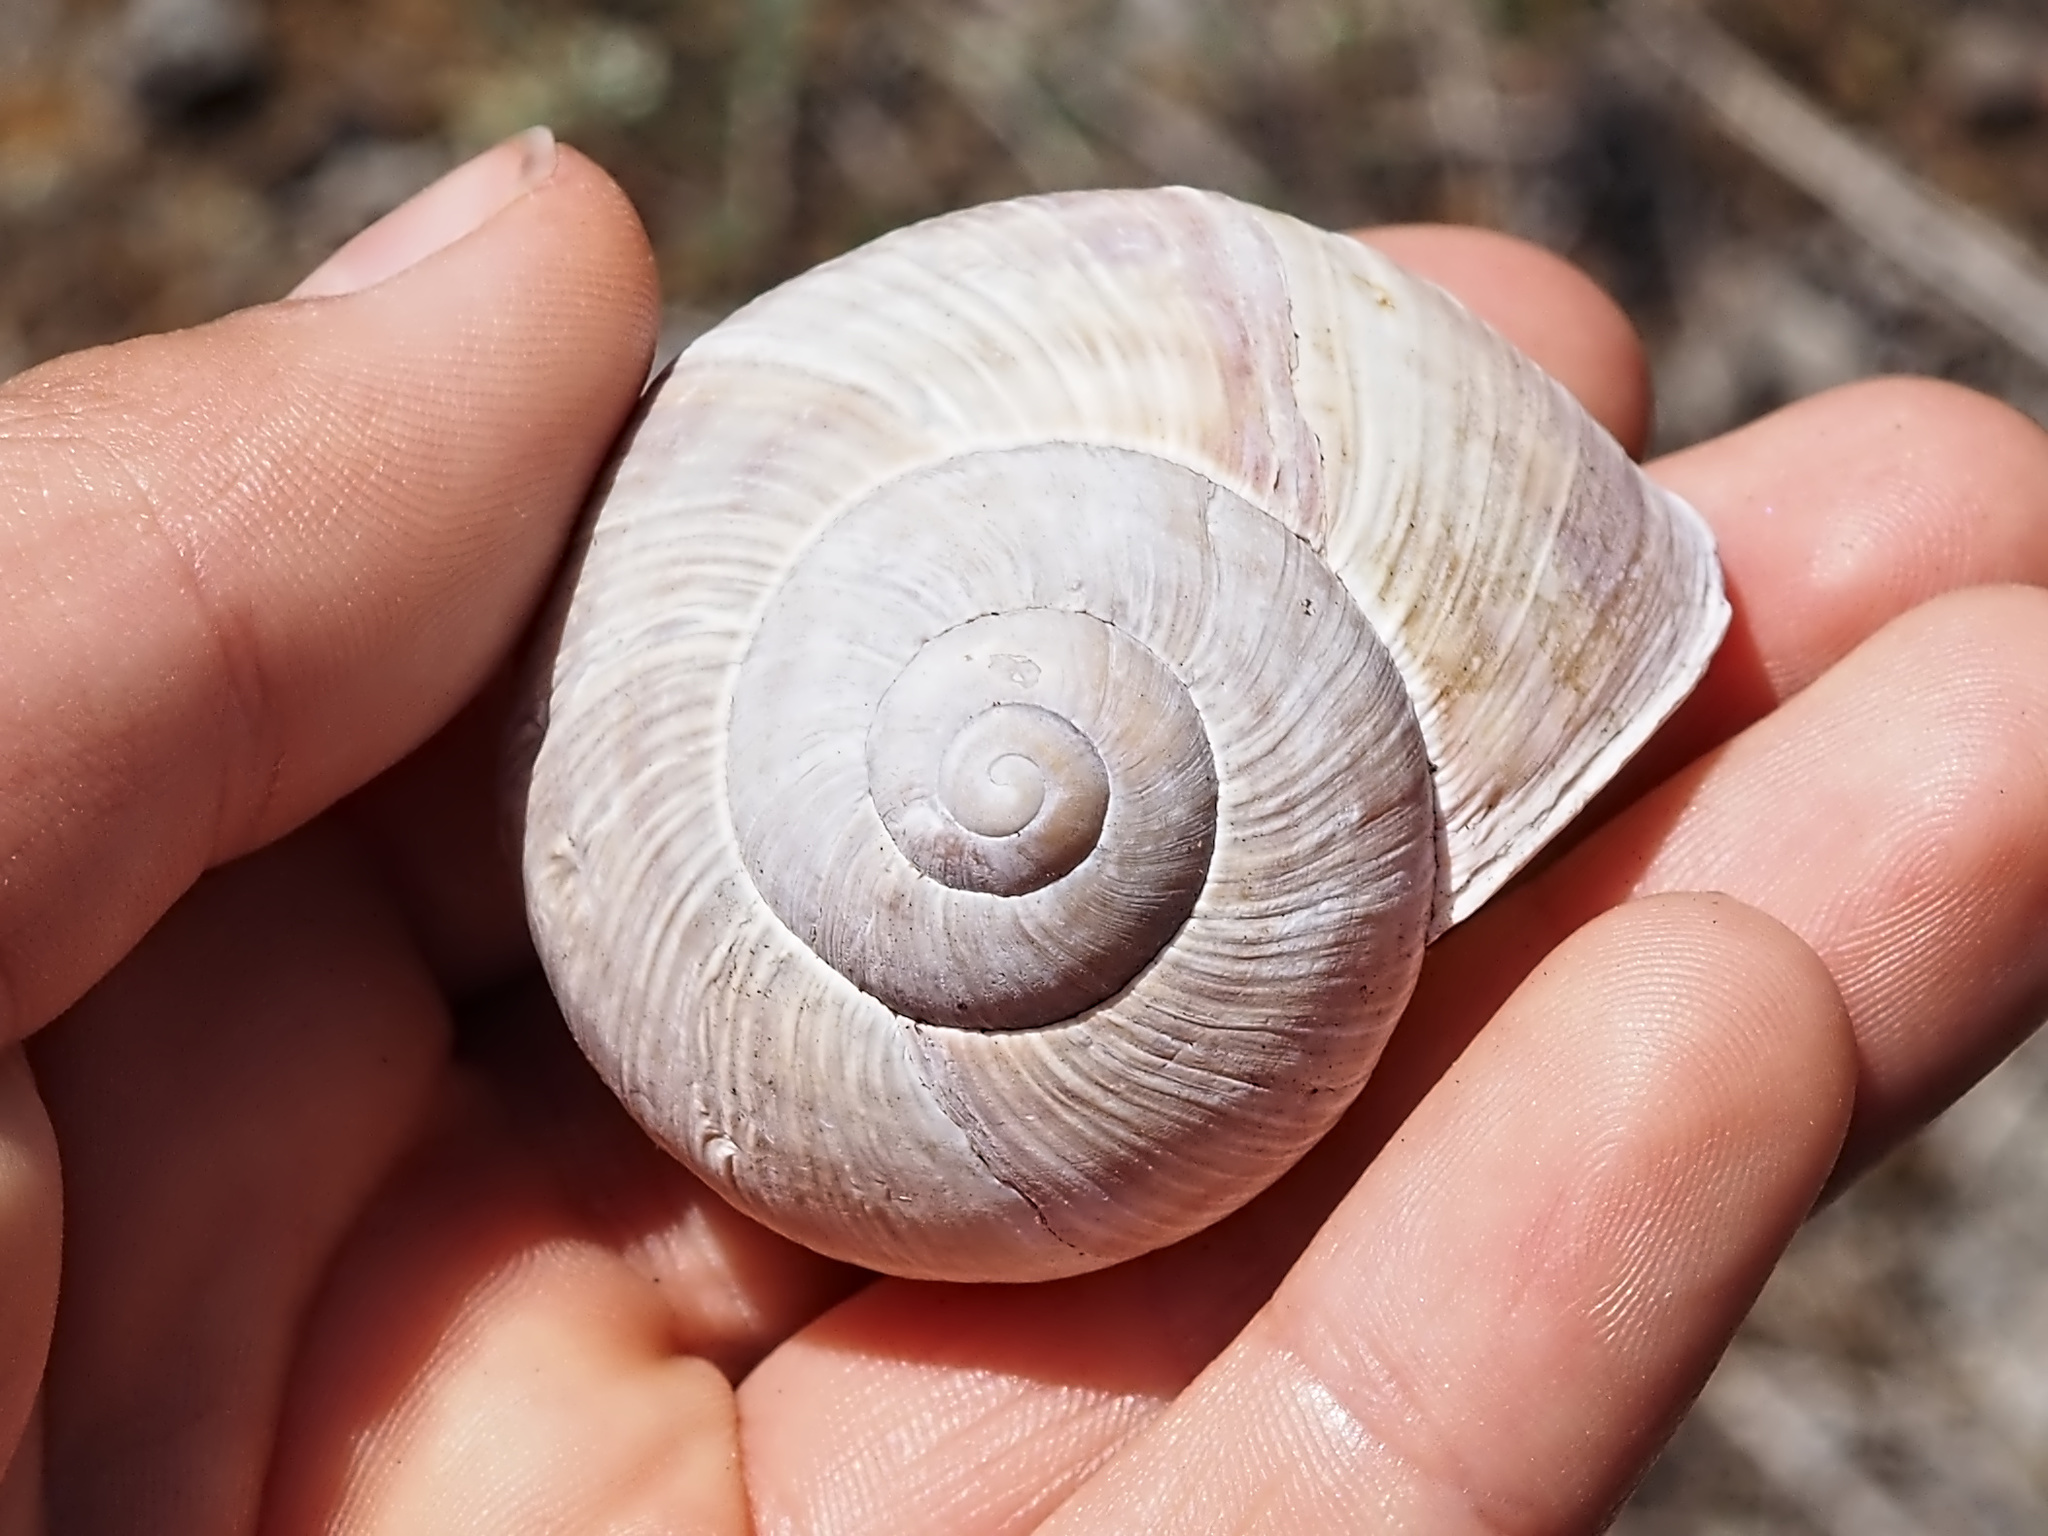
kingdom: Animalia
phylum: Mollusca
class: Gastropoda
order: Stylommatophora
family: Helicidae
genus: Helix
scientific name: Helix pomatia
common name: Roman snail
